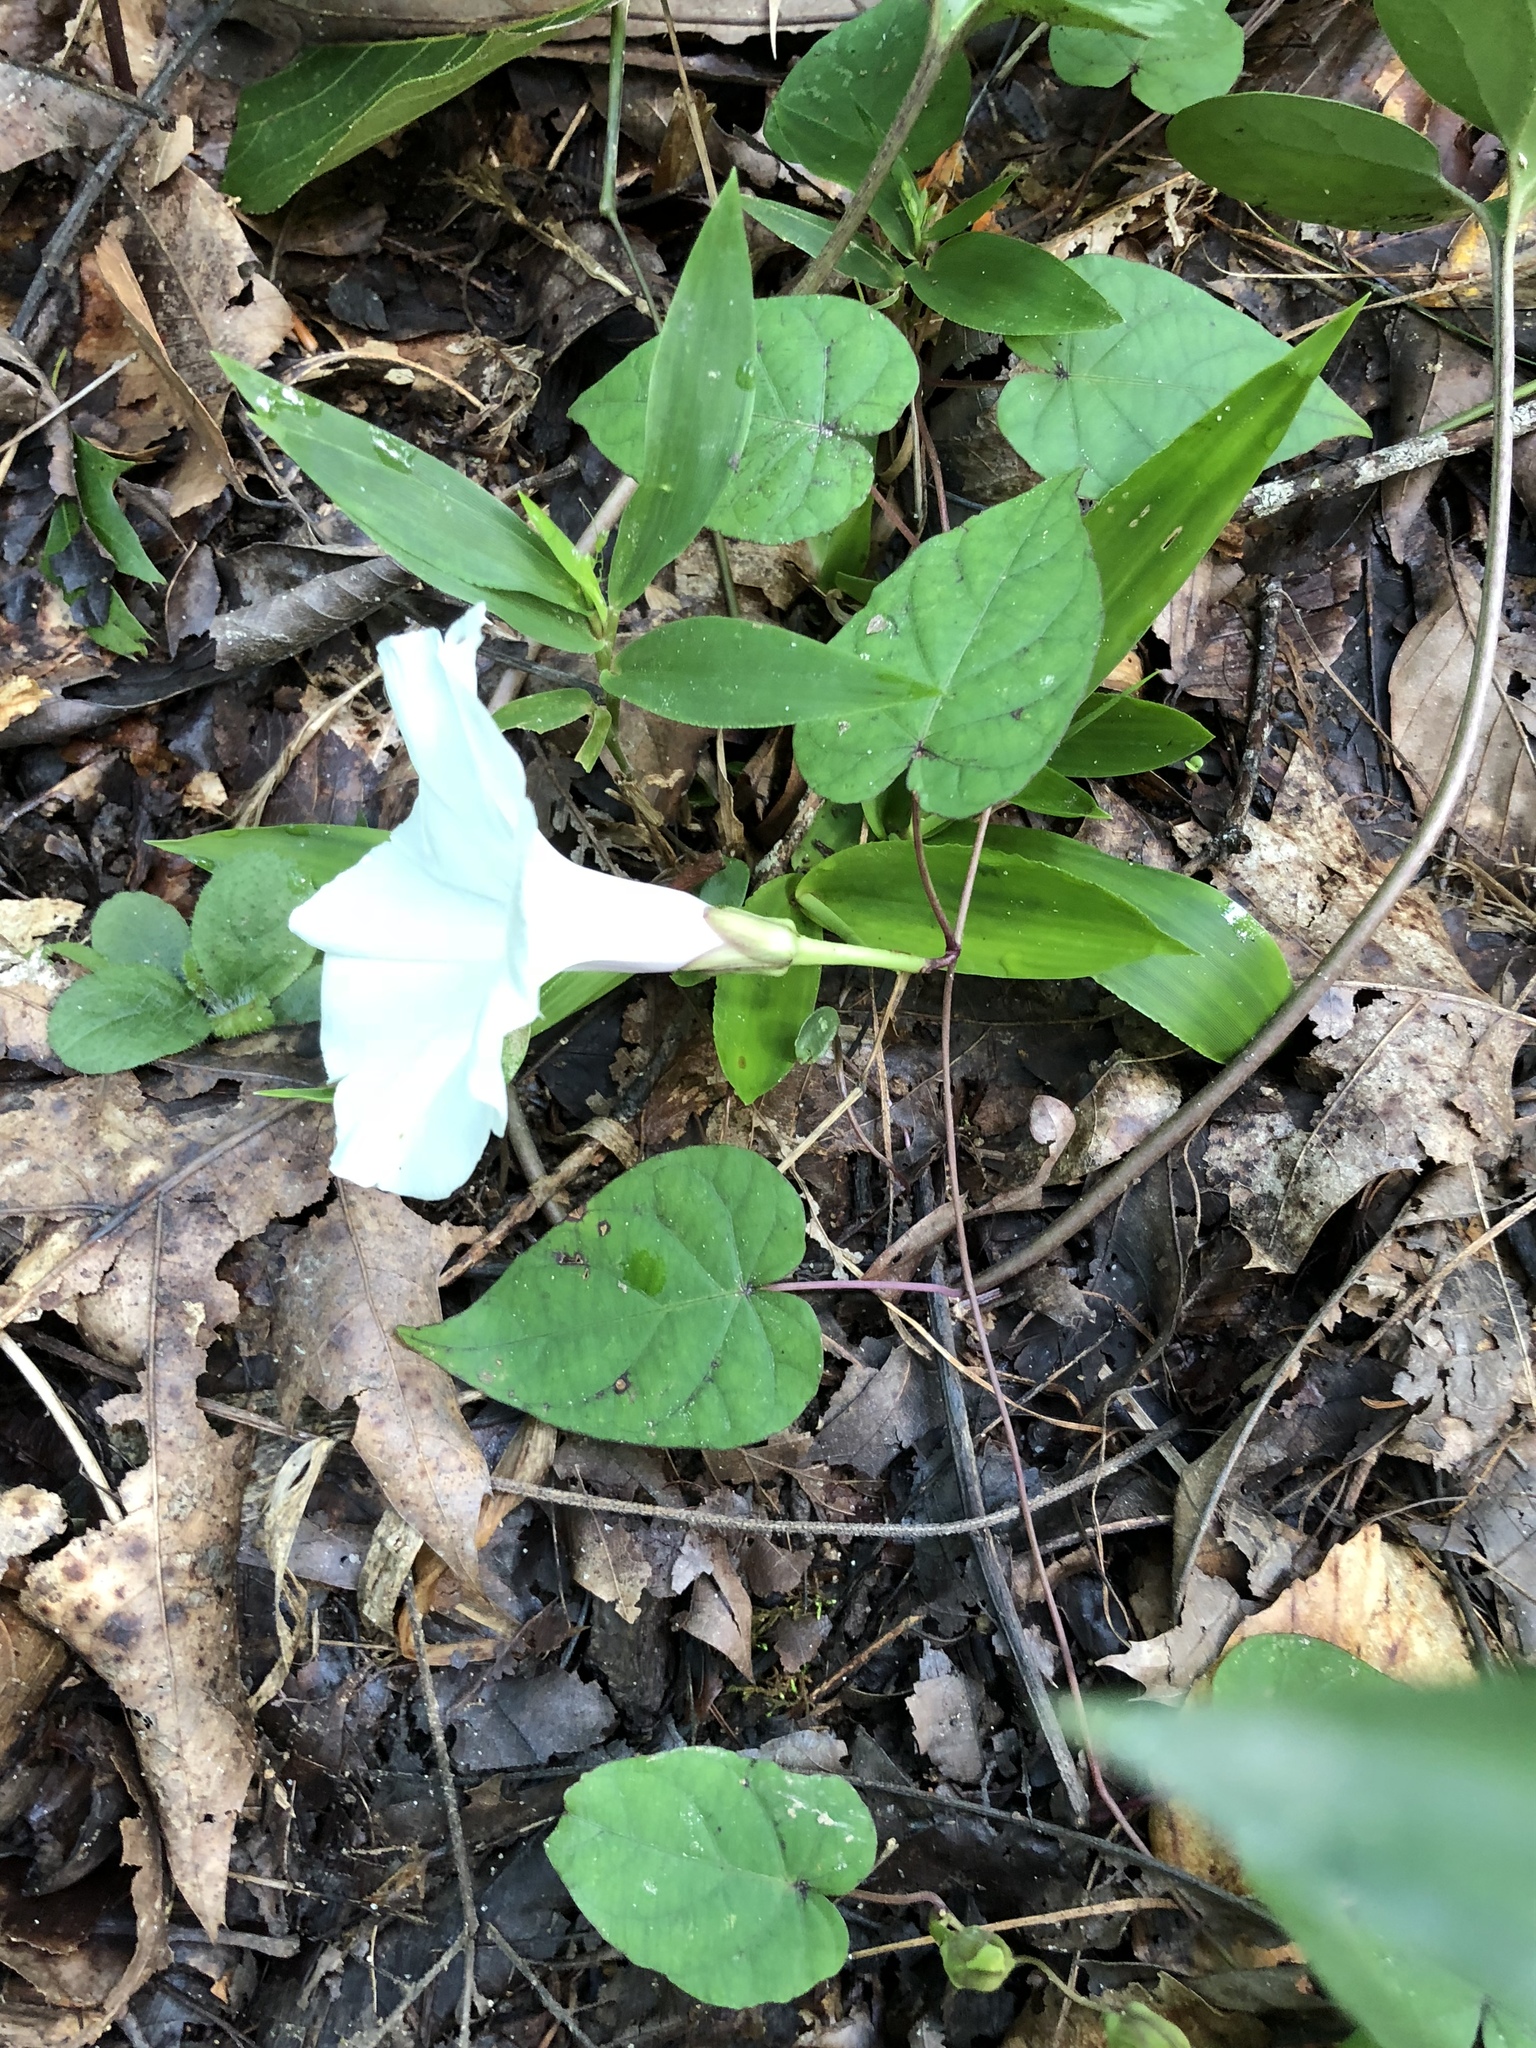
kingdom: Plantae
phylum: Tracheophyta
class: Magnoliopsida
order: Solanales
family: Convolvulaceae
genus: Ipomoea
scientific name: Ipomoea pandurata
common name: Man-of-the-earth
